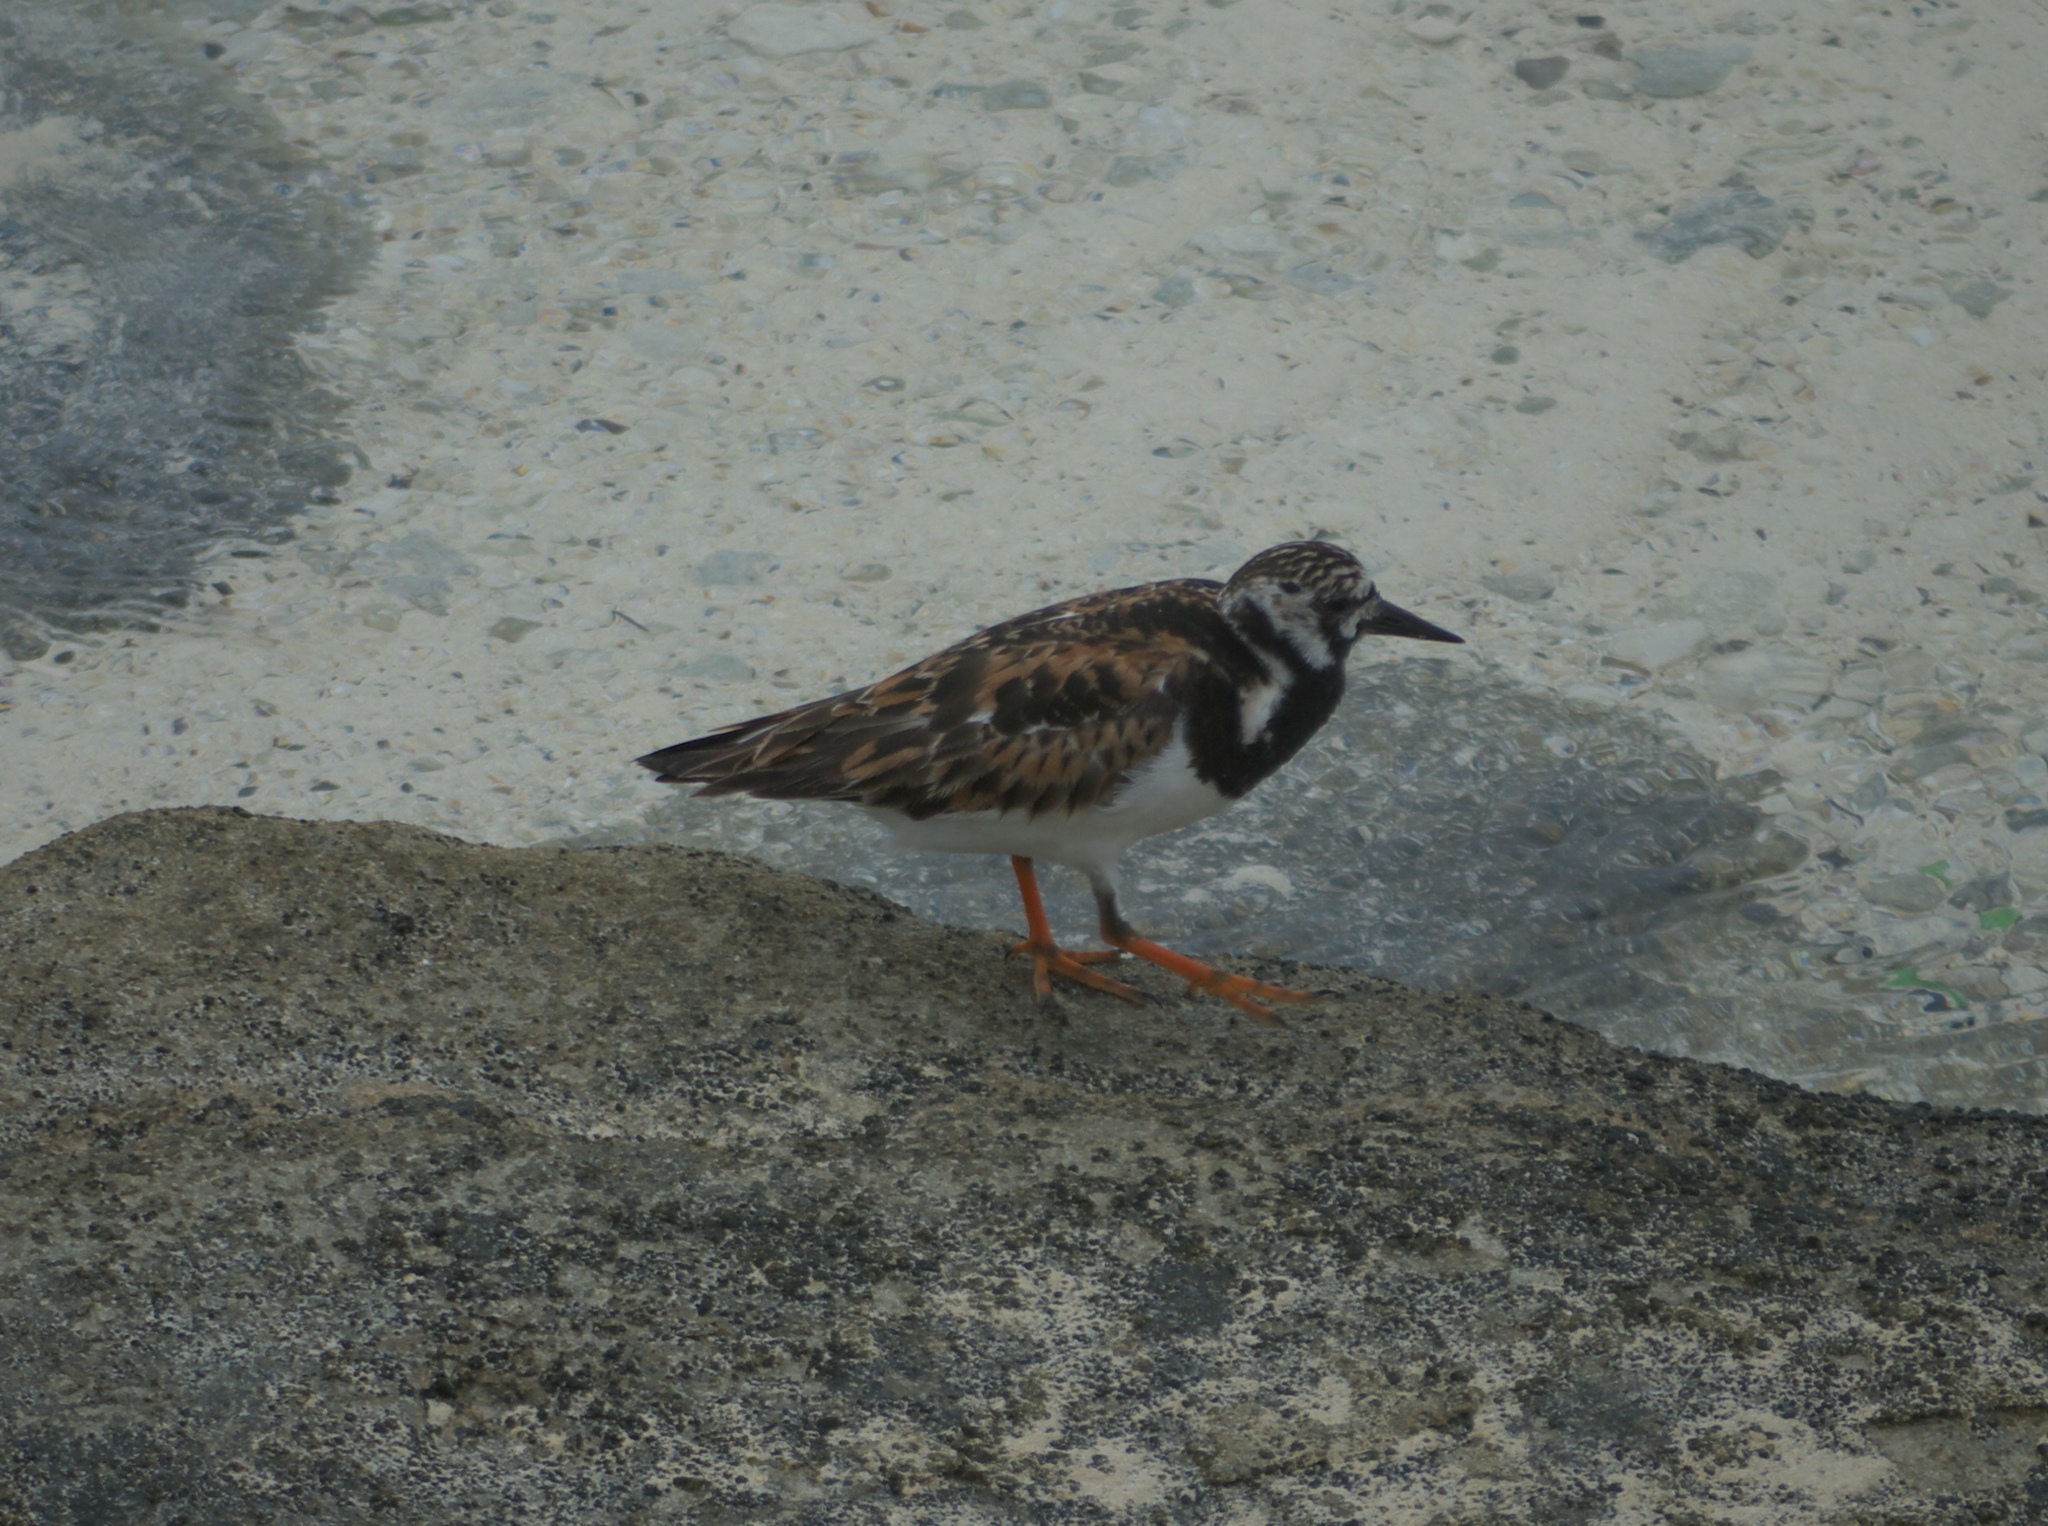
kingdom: Animalia
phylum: Chordata
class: Aves
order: Charadriiformes
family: Scolopacidae
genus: Arenaria
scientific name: Arenaria interpres
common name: Ruddy turnstone
